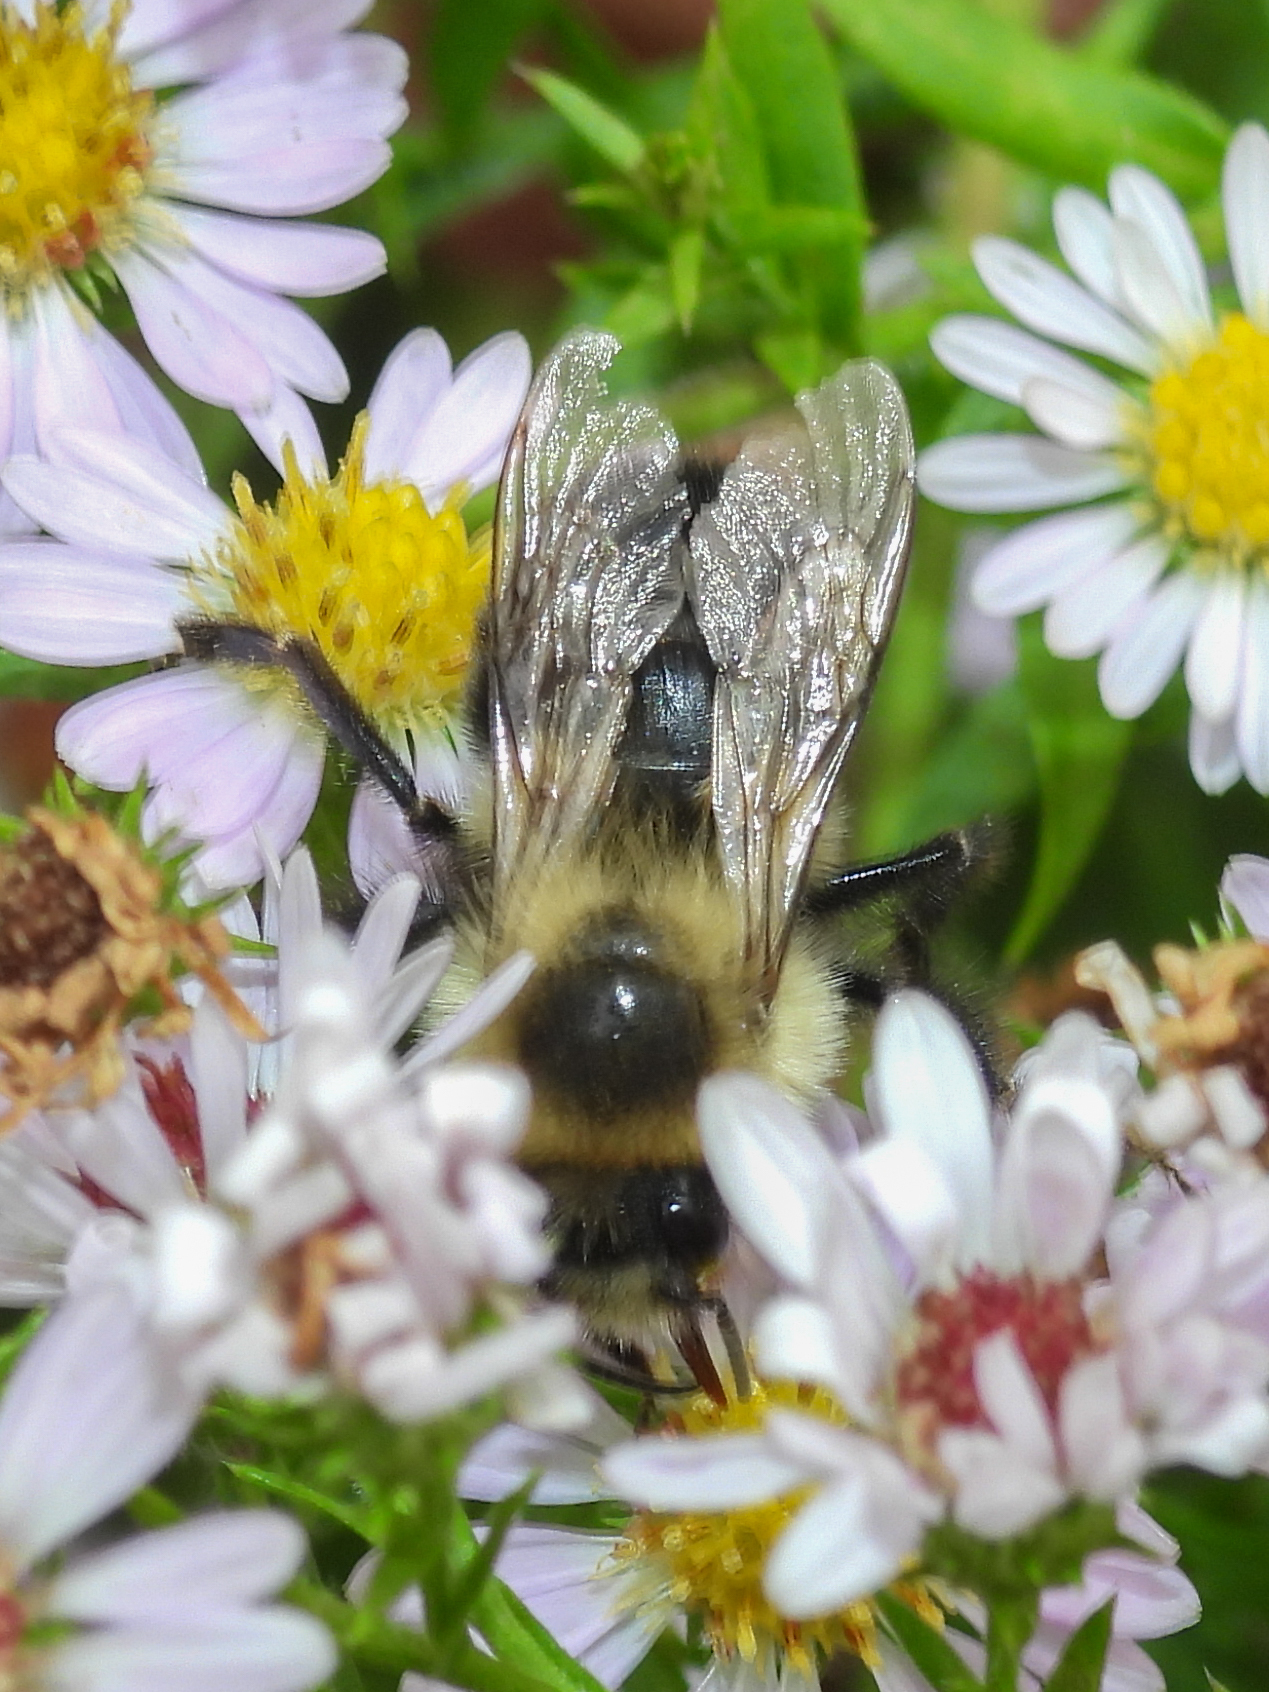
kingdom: Animalia
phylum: Arthropoda
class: Insecta
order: Hymenoptera
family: Apidae
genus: Bombus
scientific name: Bombus impatiens
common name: Common eastern bumble bee
